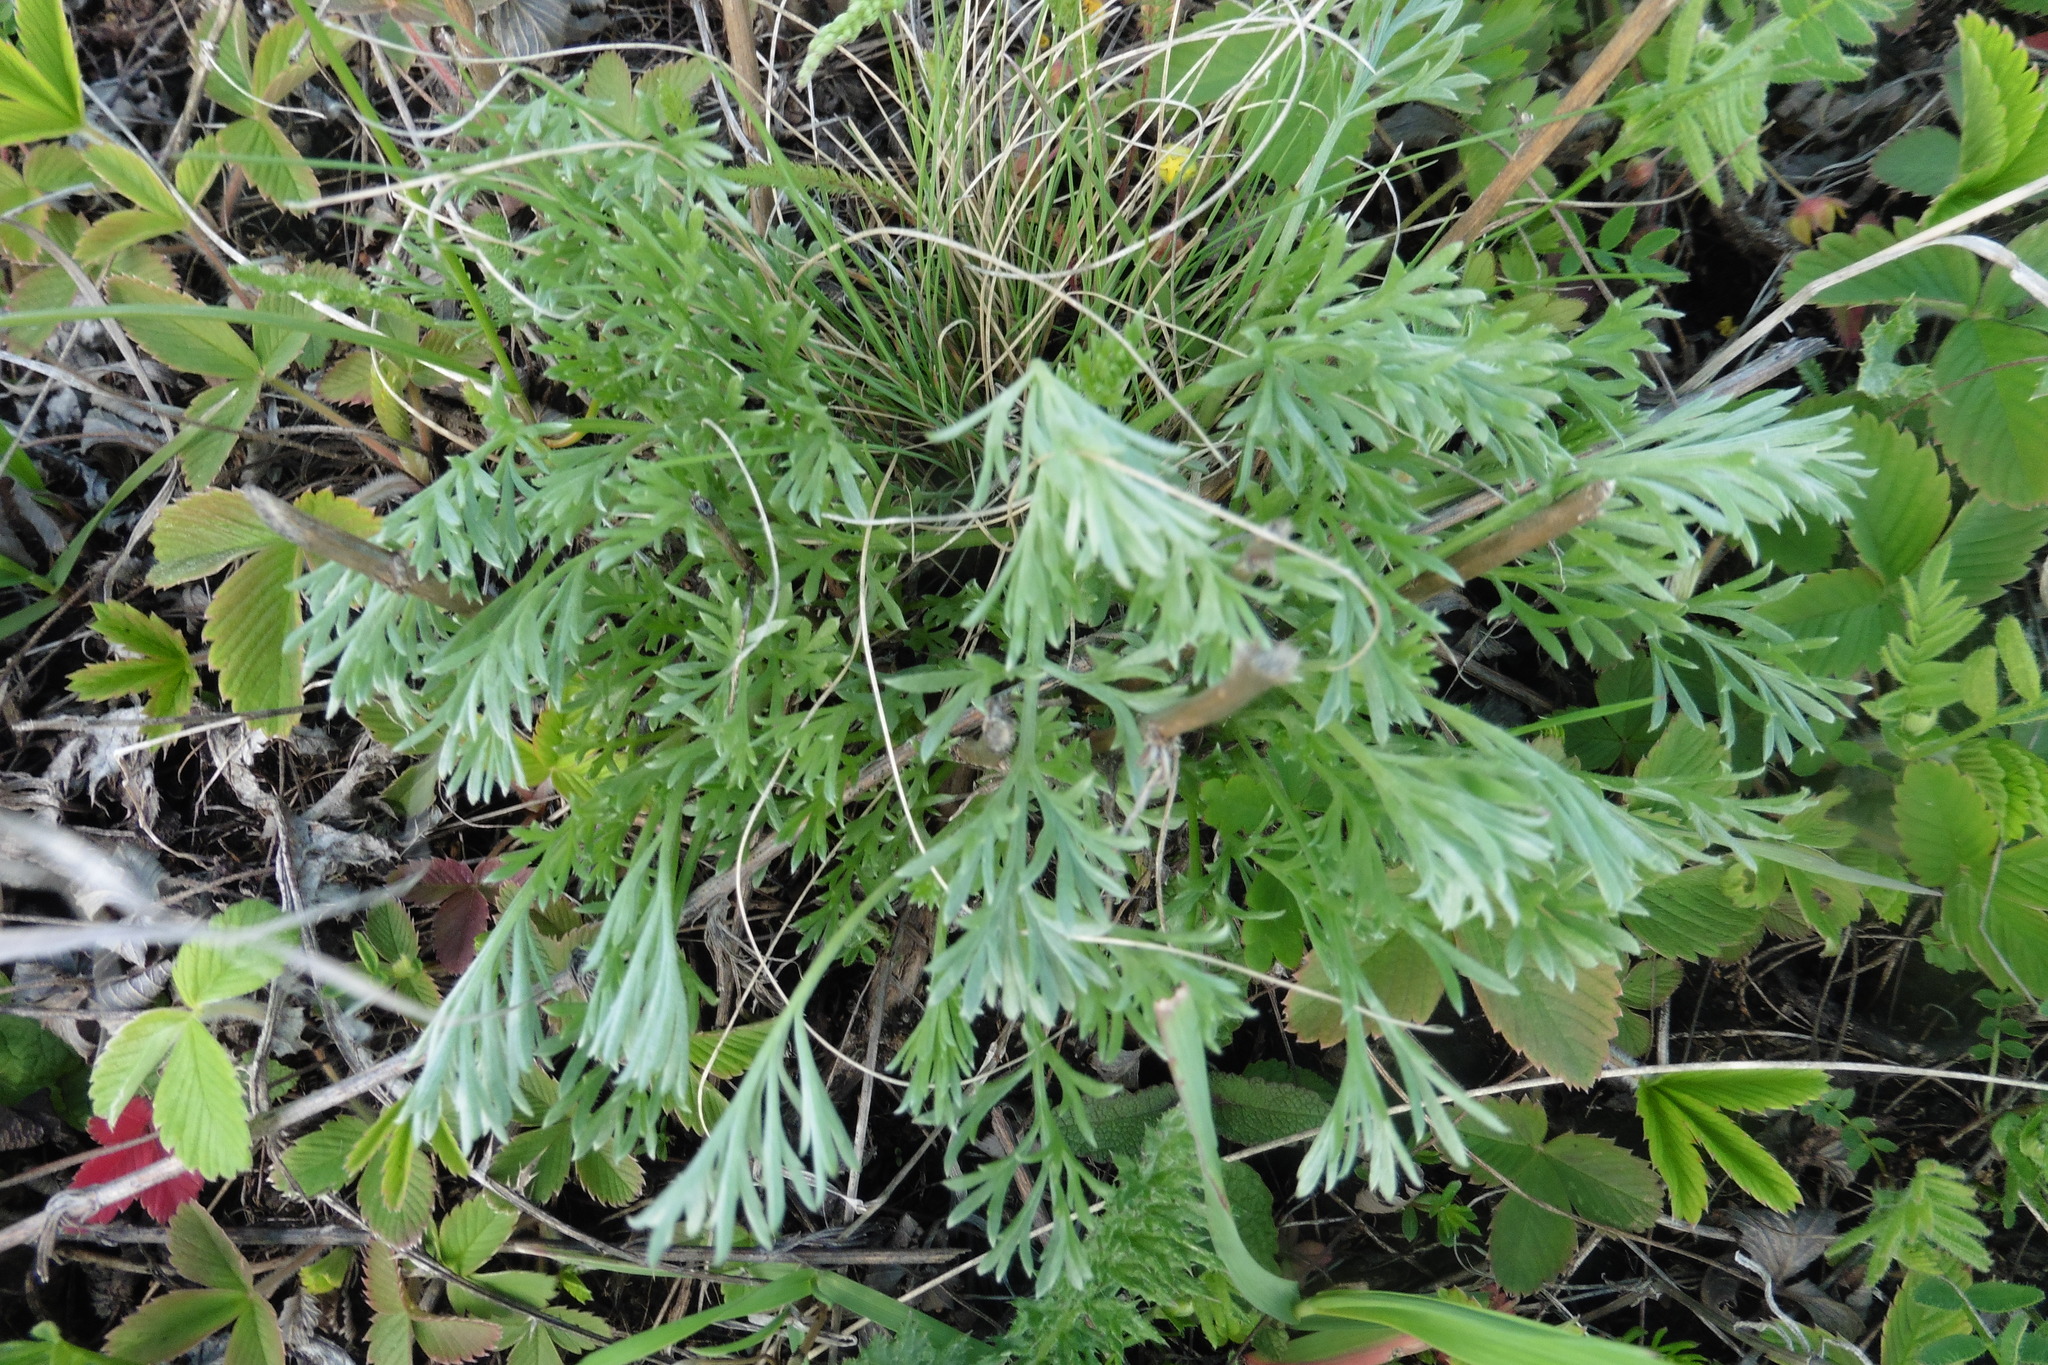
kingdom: Plantae
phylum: Tracheophyta
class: Magnoliopsida
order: Asterales
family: Asteraceae
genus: Artemisia
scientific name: Artemisia campestris
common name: Field wormwood
